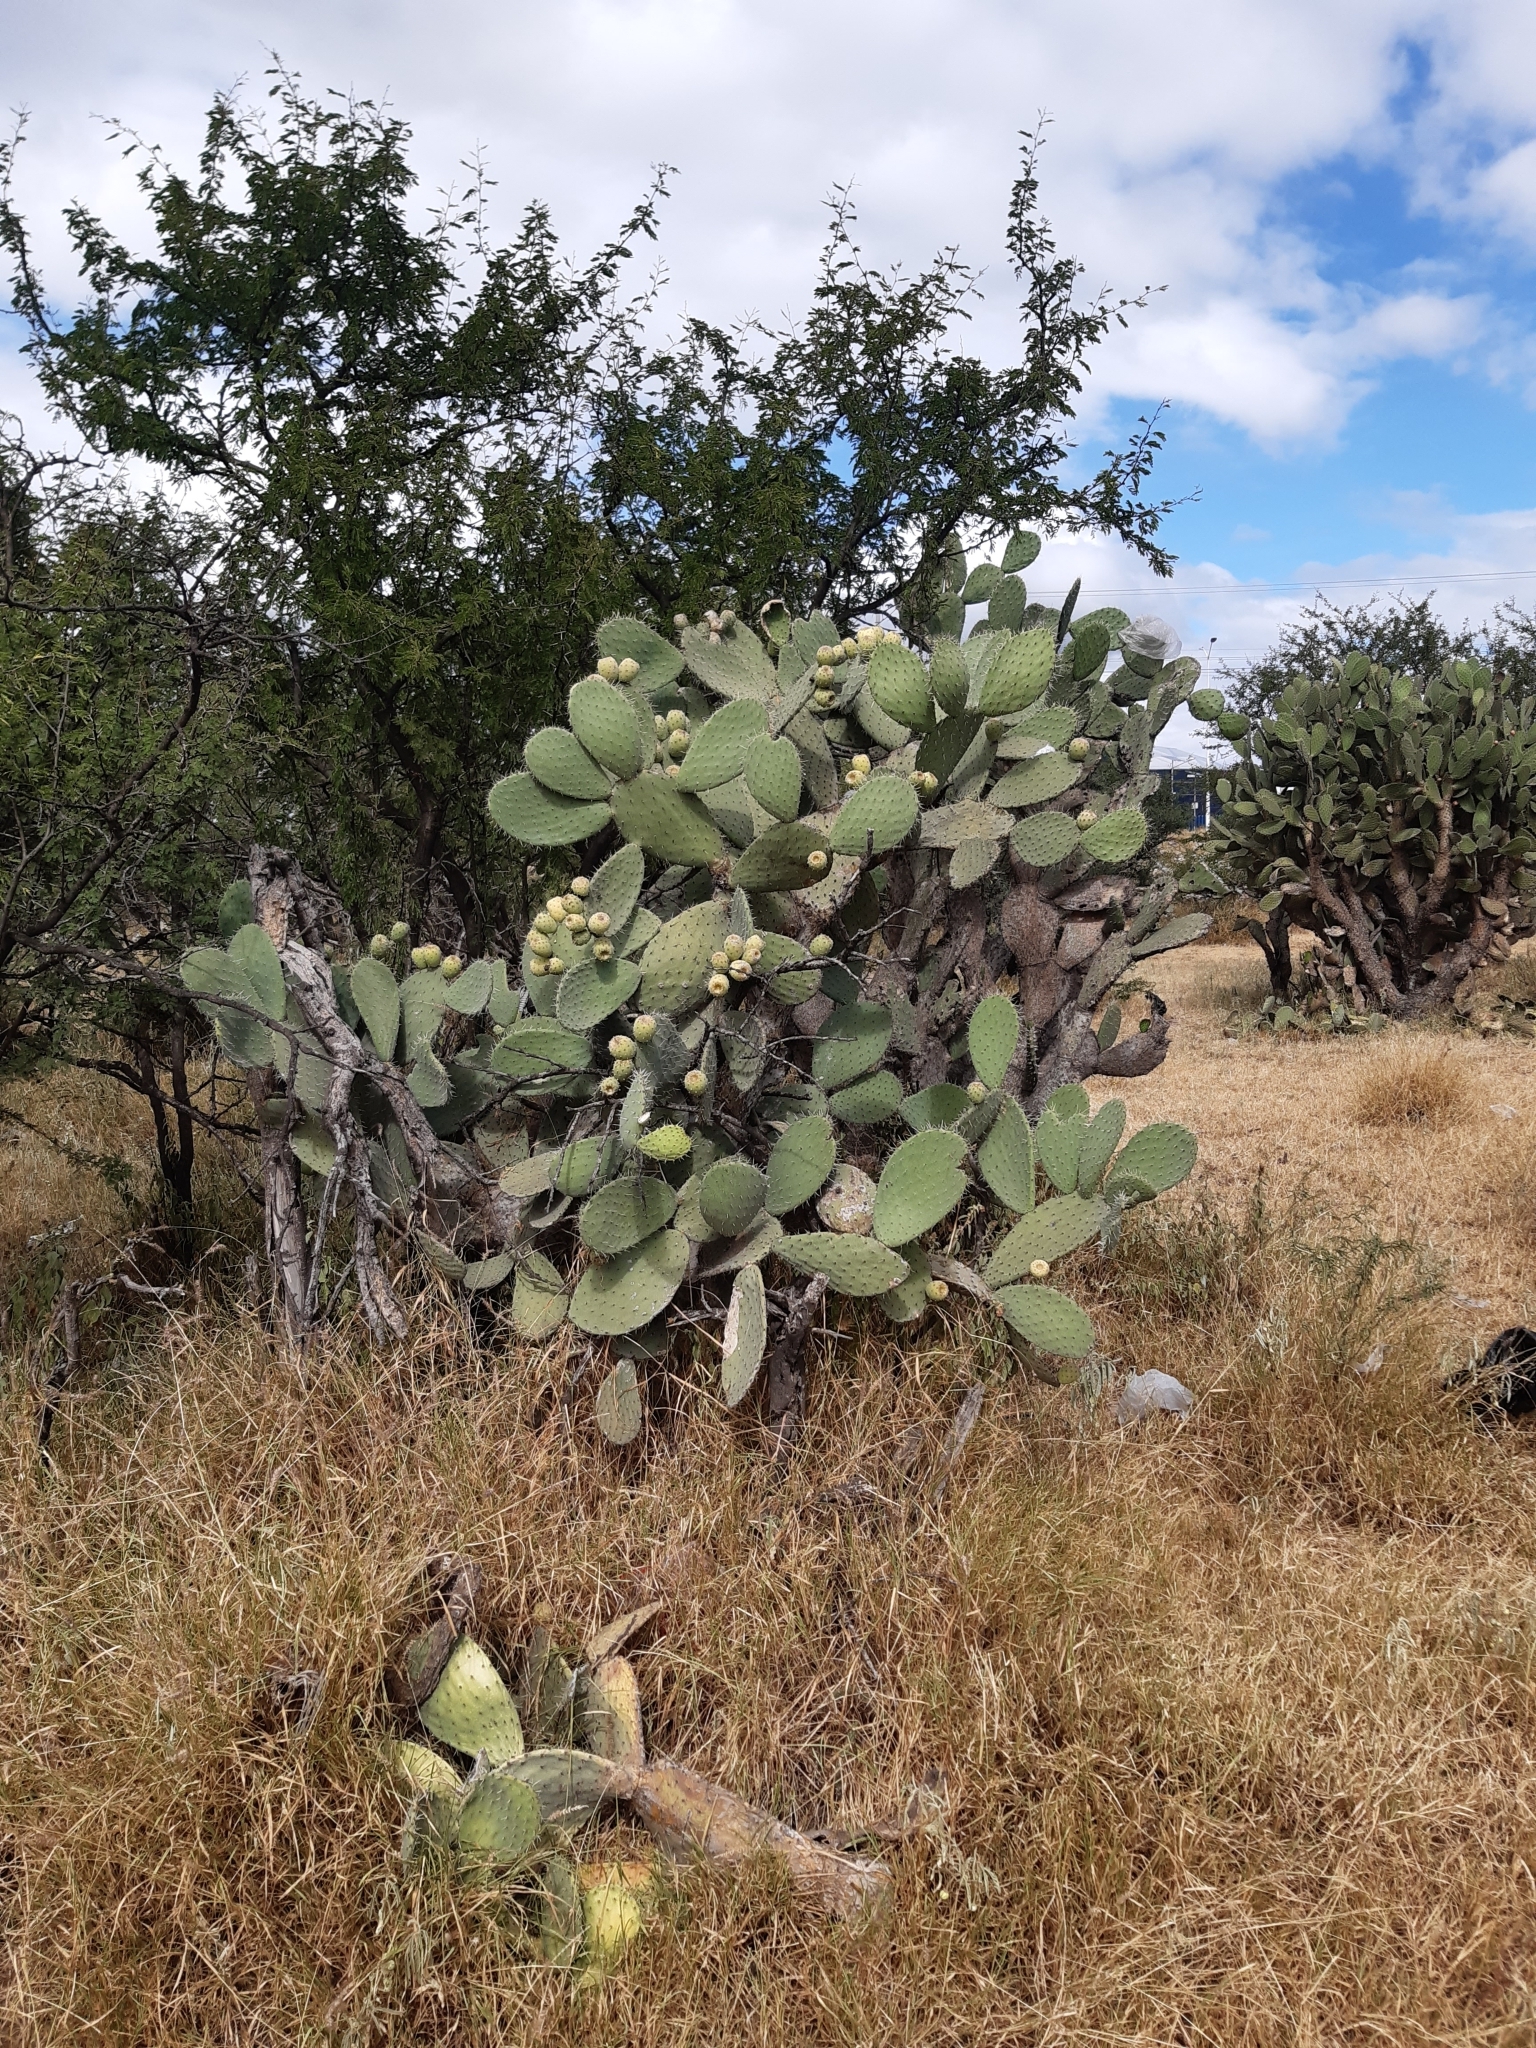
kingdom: Plantae
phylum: Tracheophyta
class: Magnoliopsida
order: Caryophyllales
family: Cactaceae
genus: Opuntia
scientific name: Opuntia joconostle
